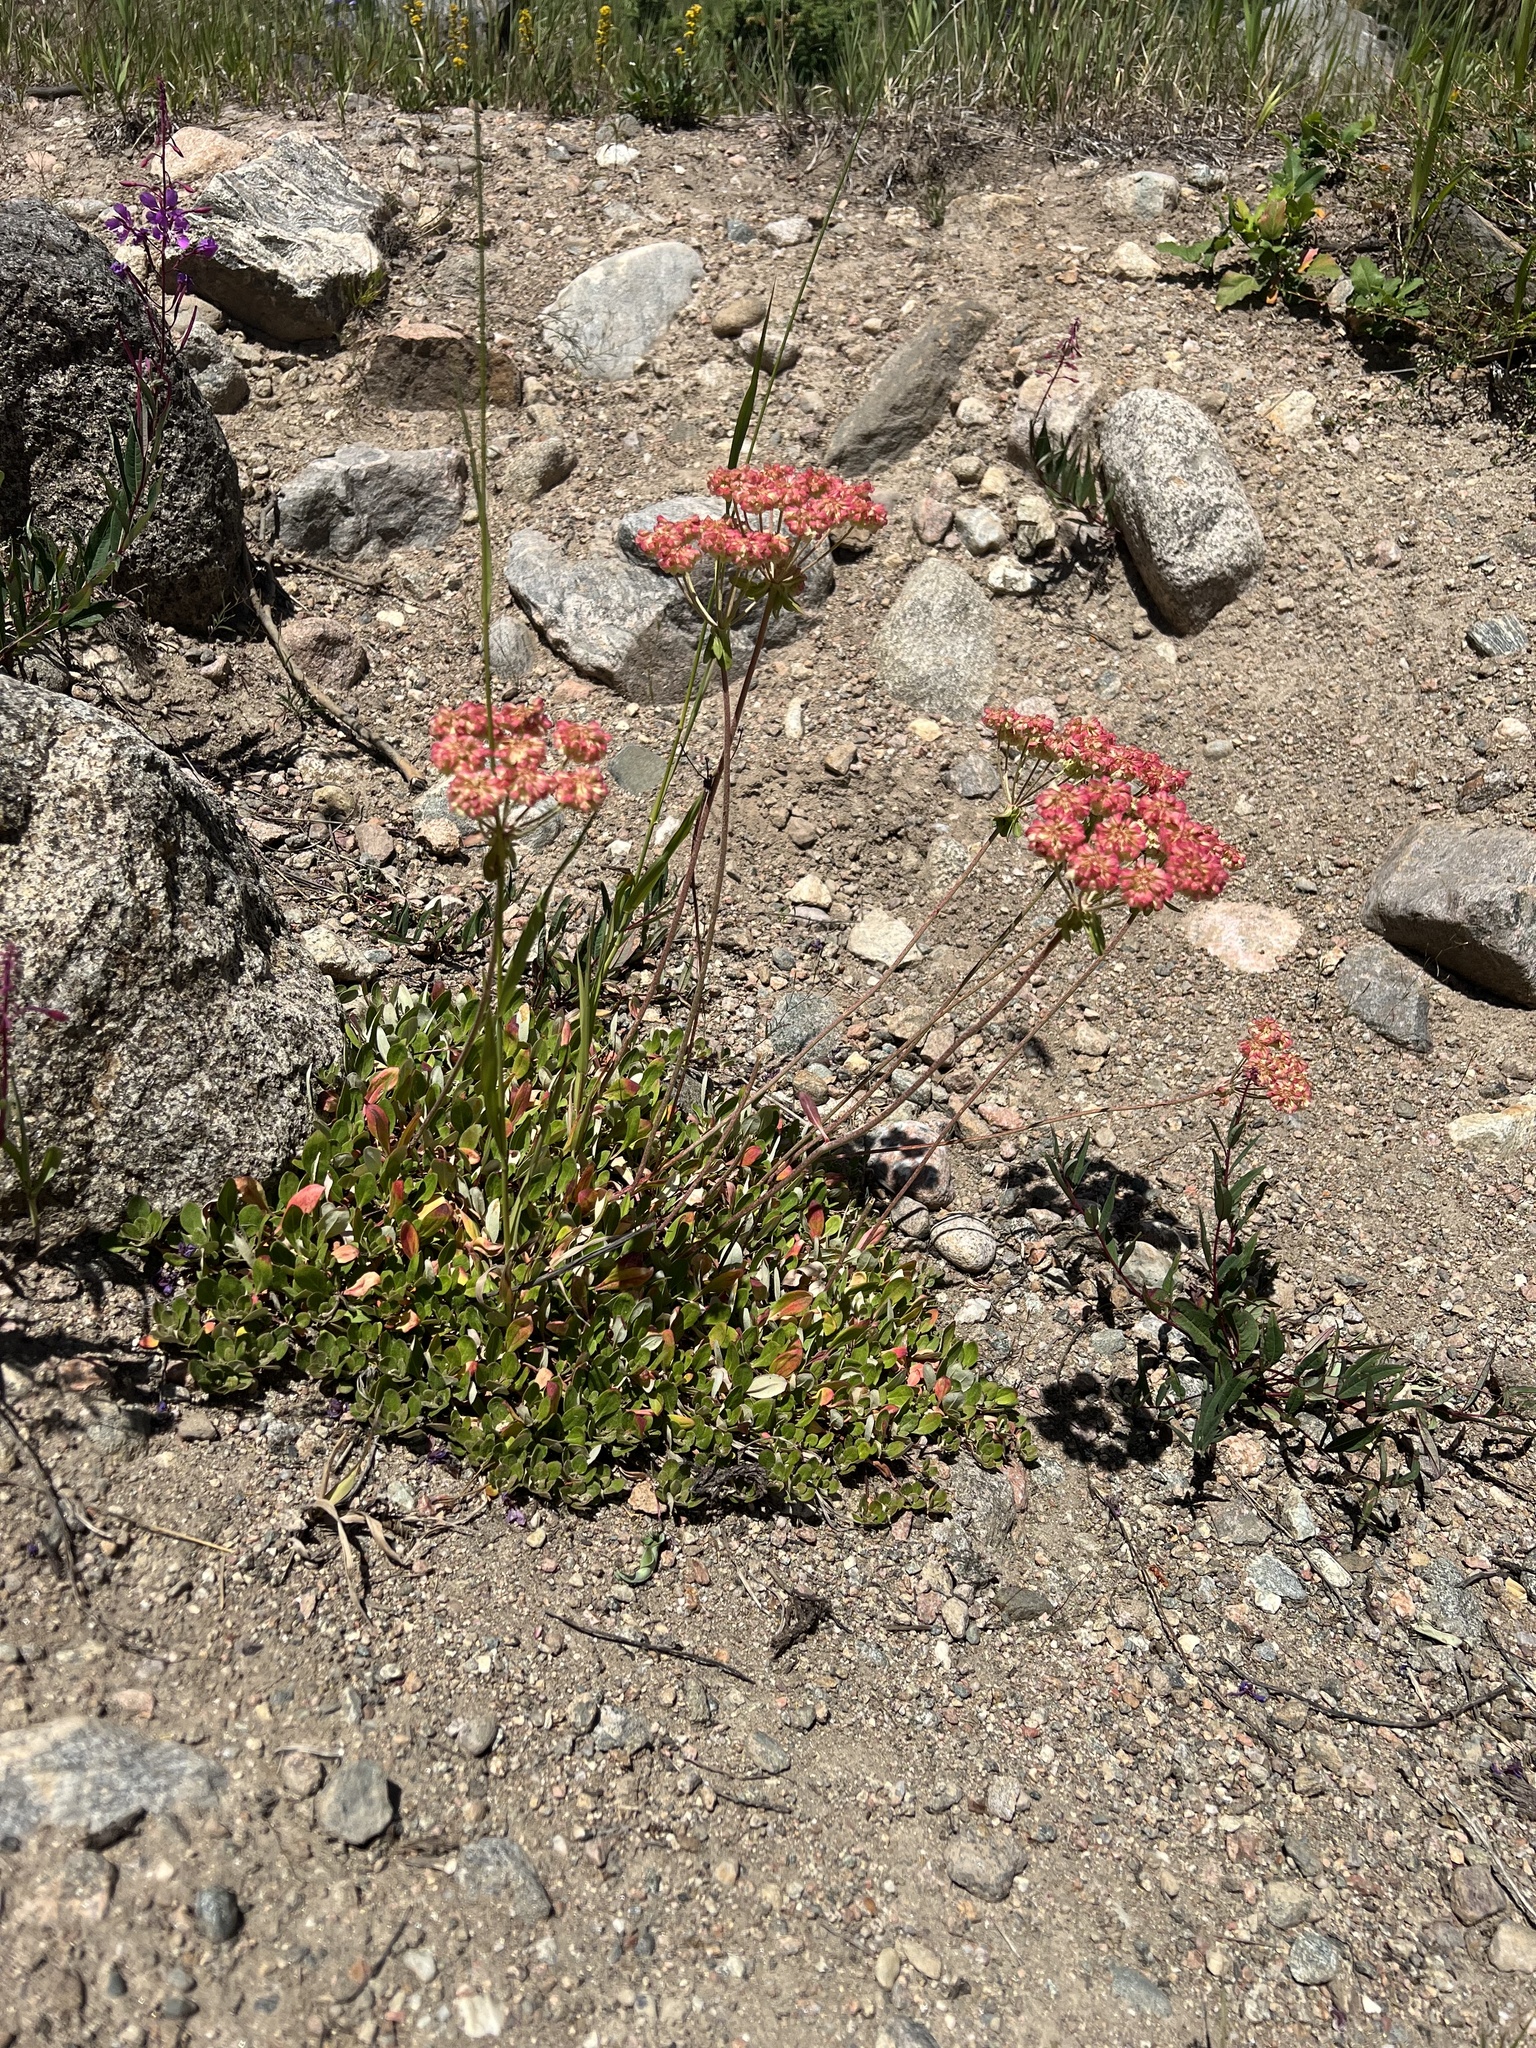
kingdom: Plantae
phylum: Tracheophyta
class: Magnoliopsida
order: Caryophyllales
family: Polygonaceae
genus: Eriogonum
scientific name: Eriogonum umbellatum
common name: Sulfur-buckwheat
